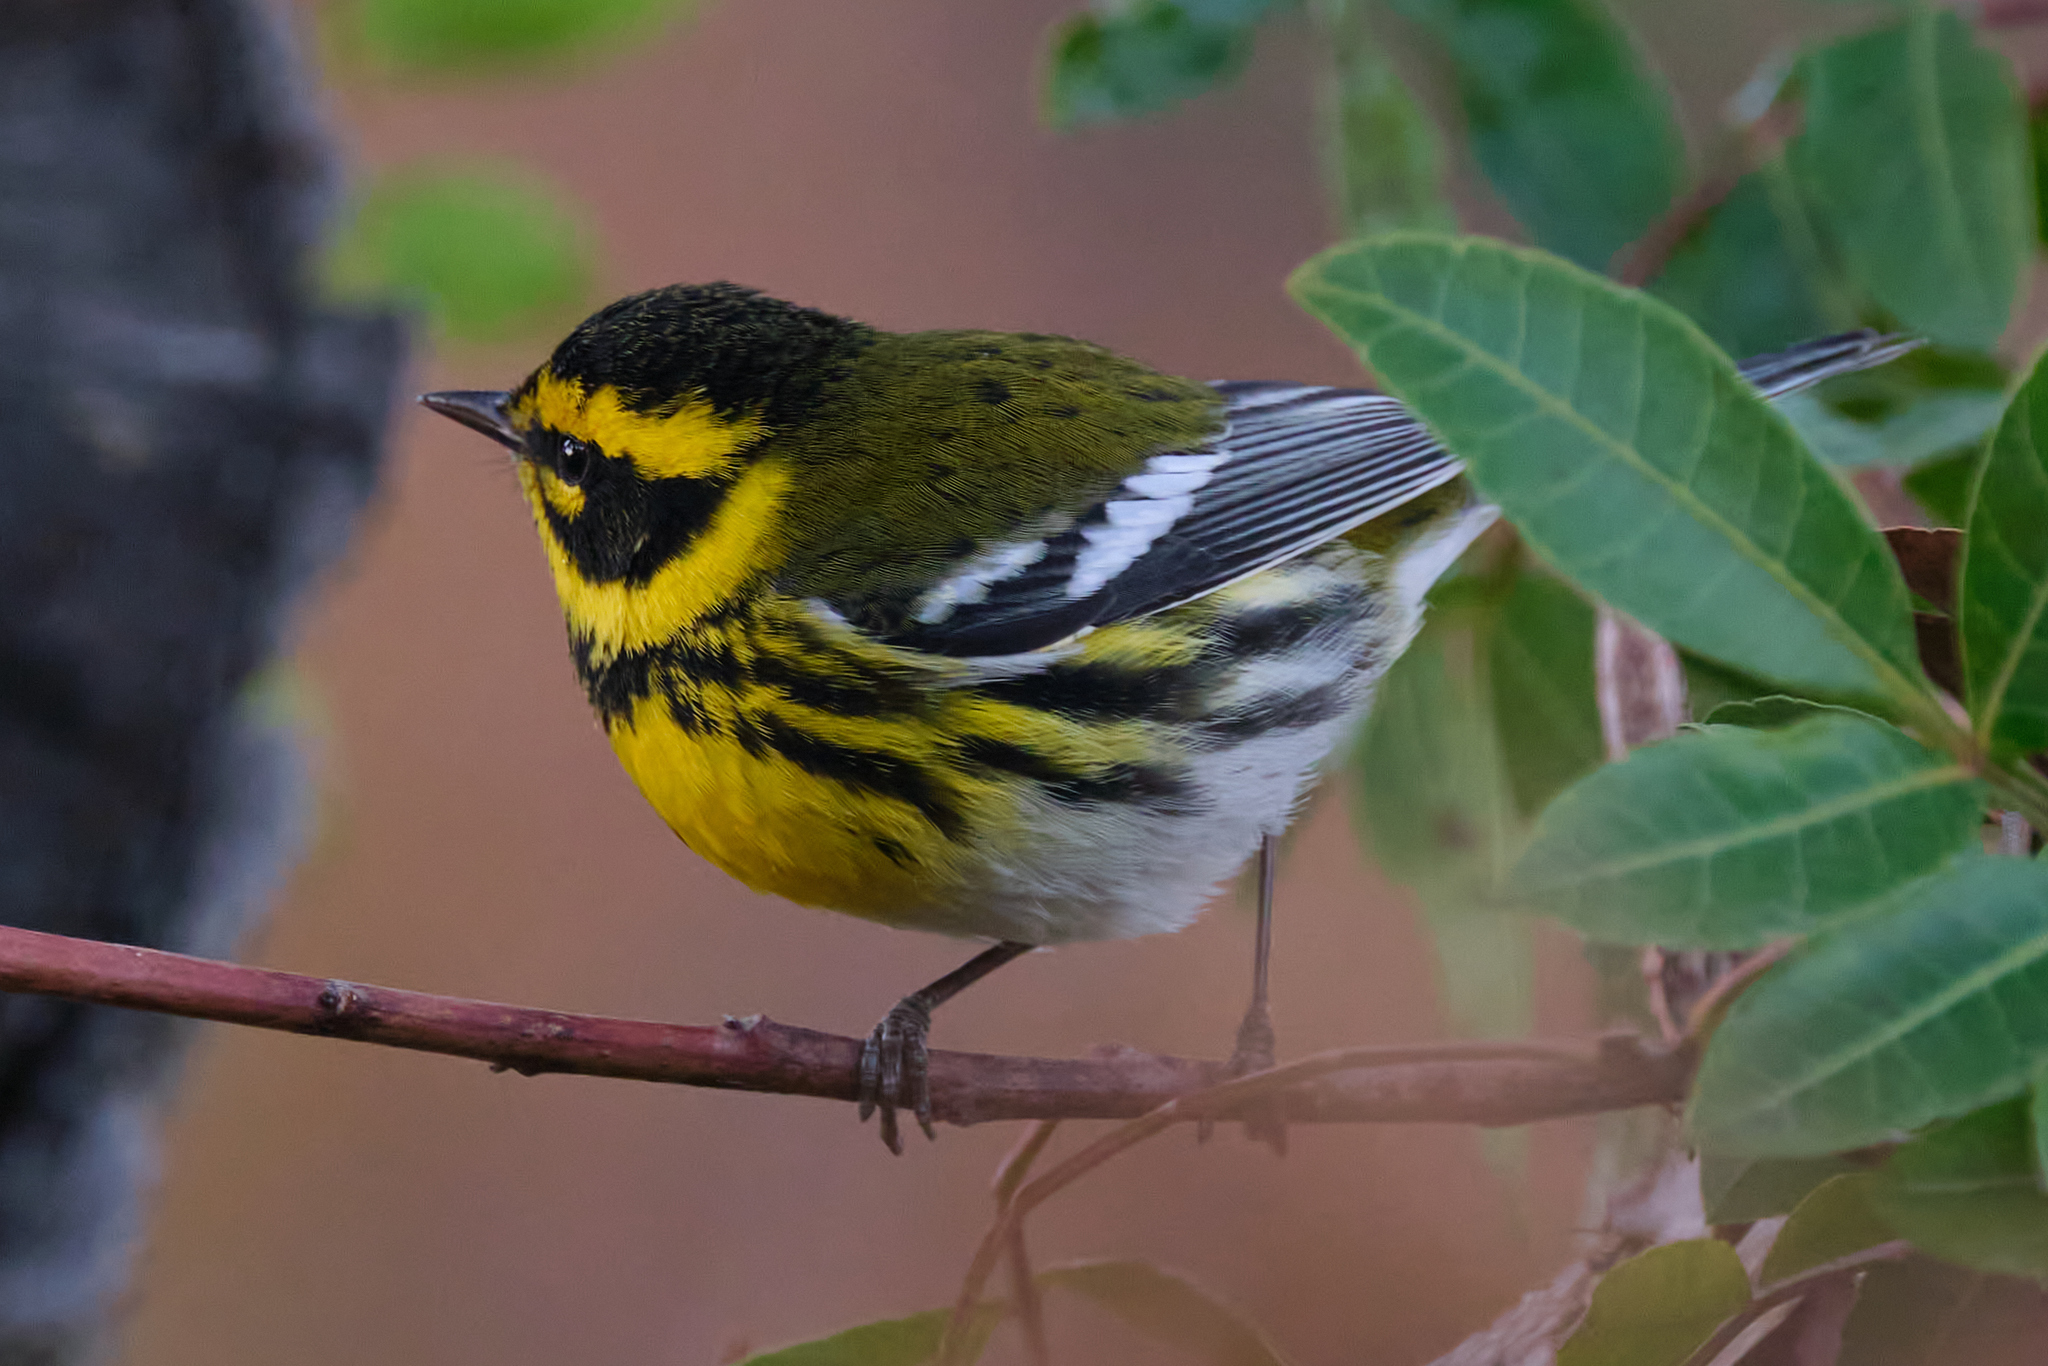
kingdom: Animalia
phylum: Chordata
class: Aves
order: Passeriformes
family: Parulidae
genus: Setophaga
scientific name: Setophaga townsendi
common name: Townsend's warbler
